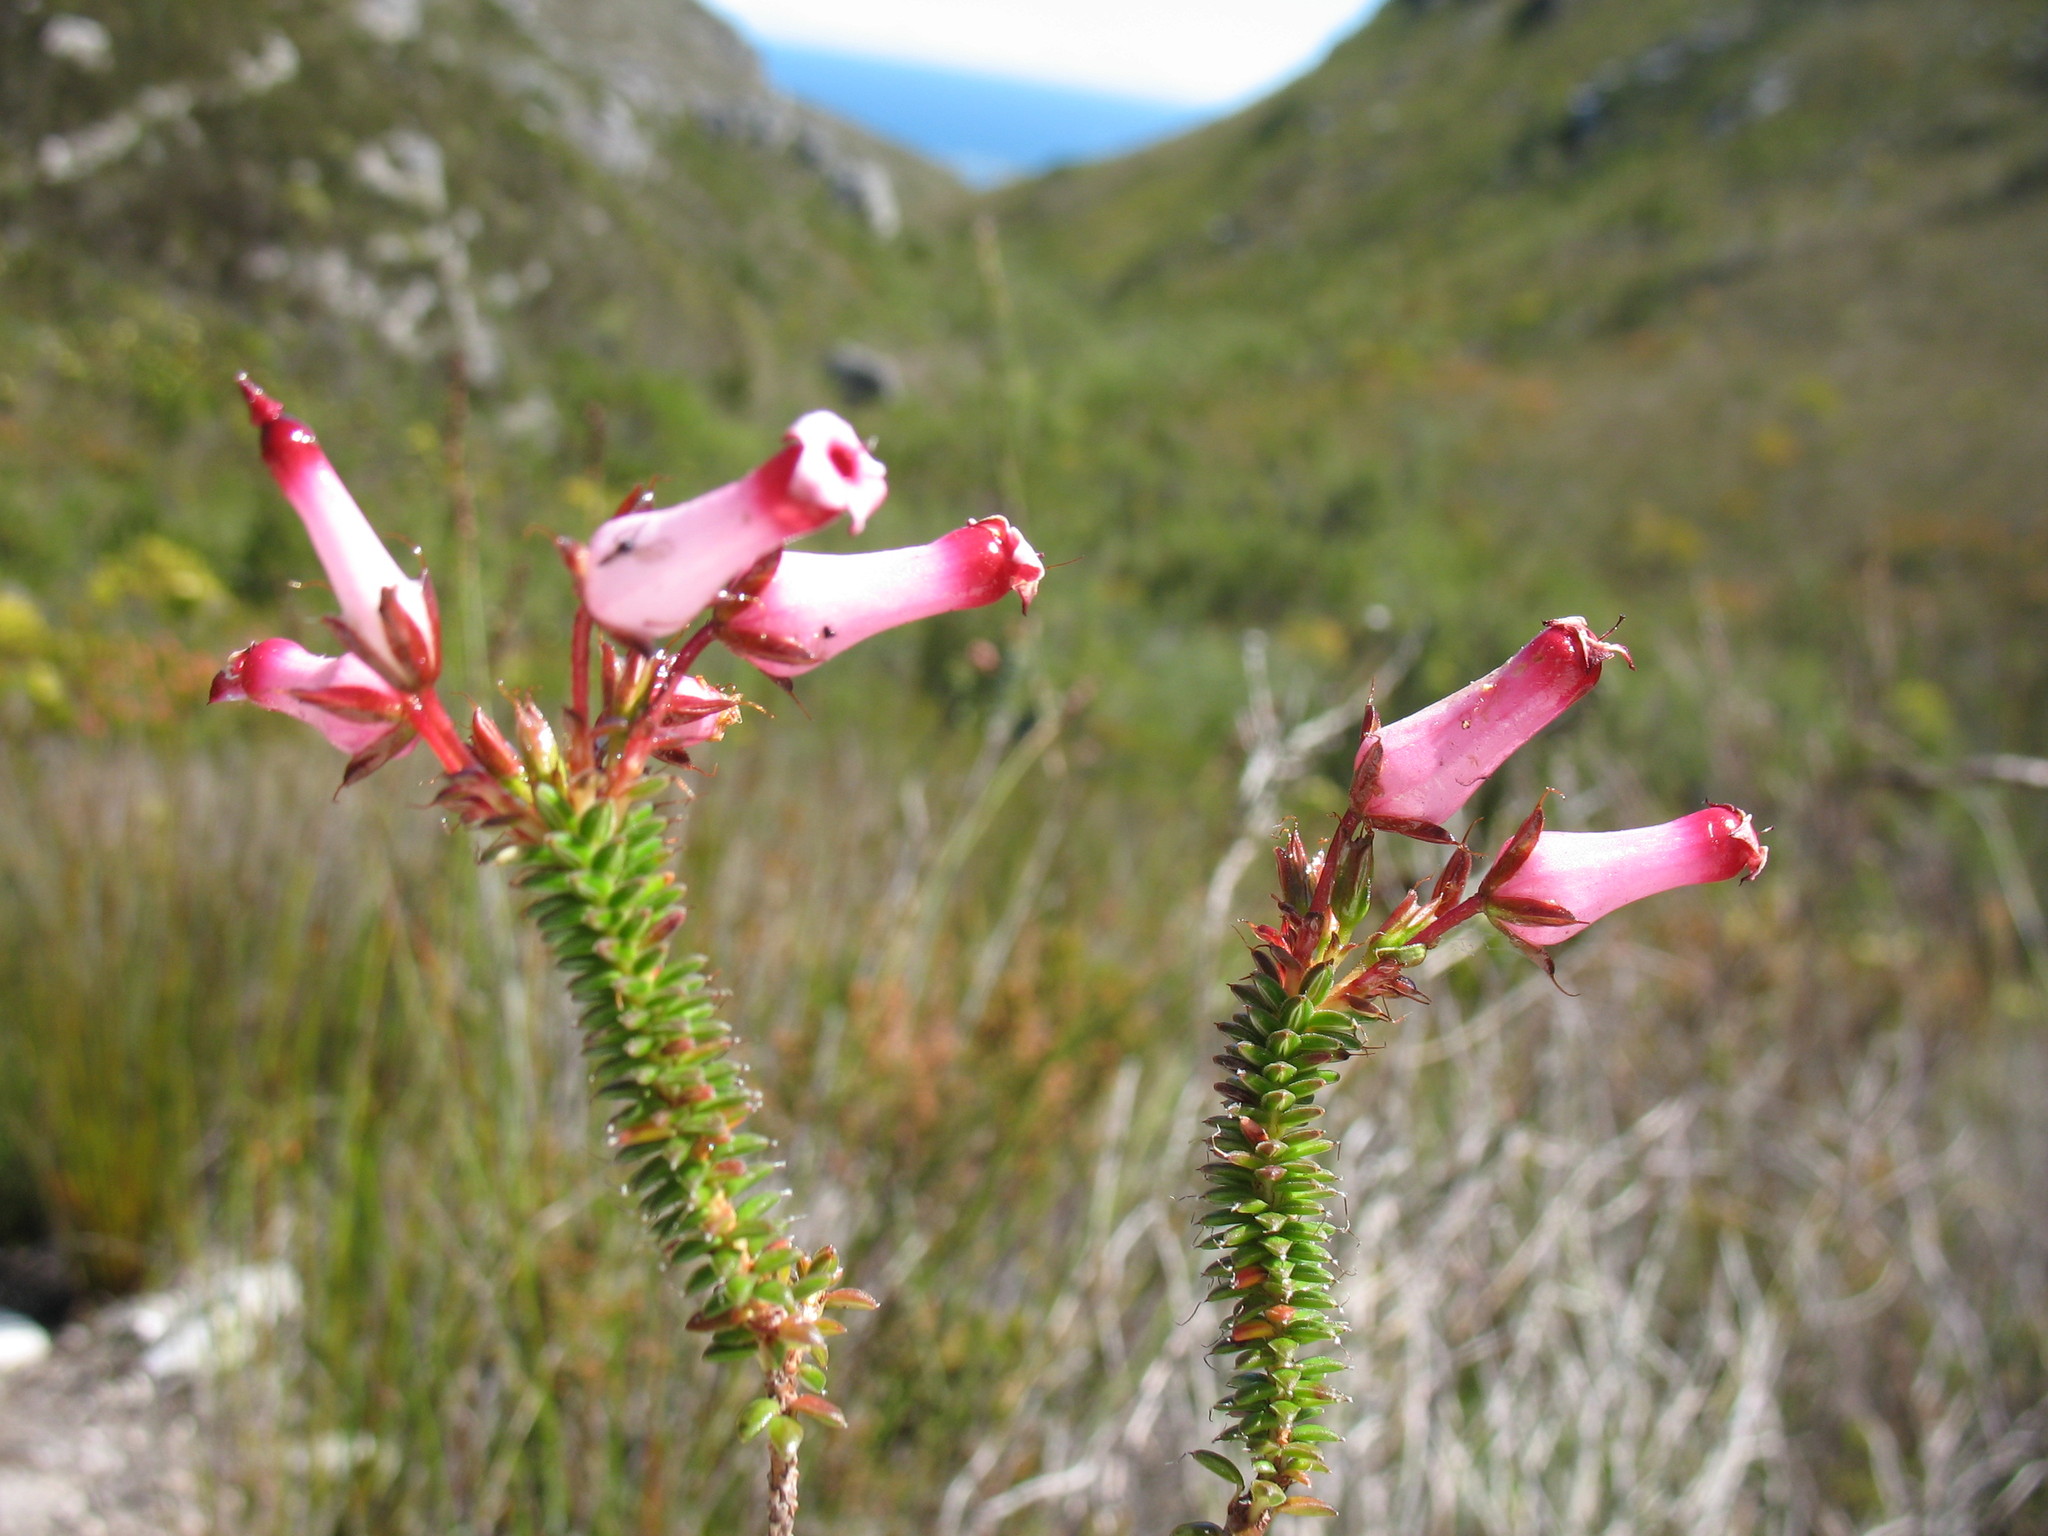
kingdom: Plantae
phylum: Tracheophyta
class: Magnoliopsida
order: Ericales
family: Ericaceae
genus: Erica
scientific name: Erica retorta
